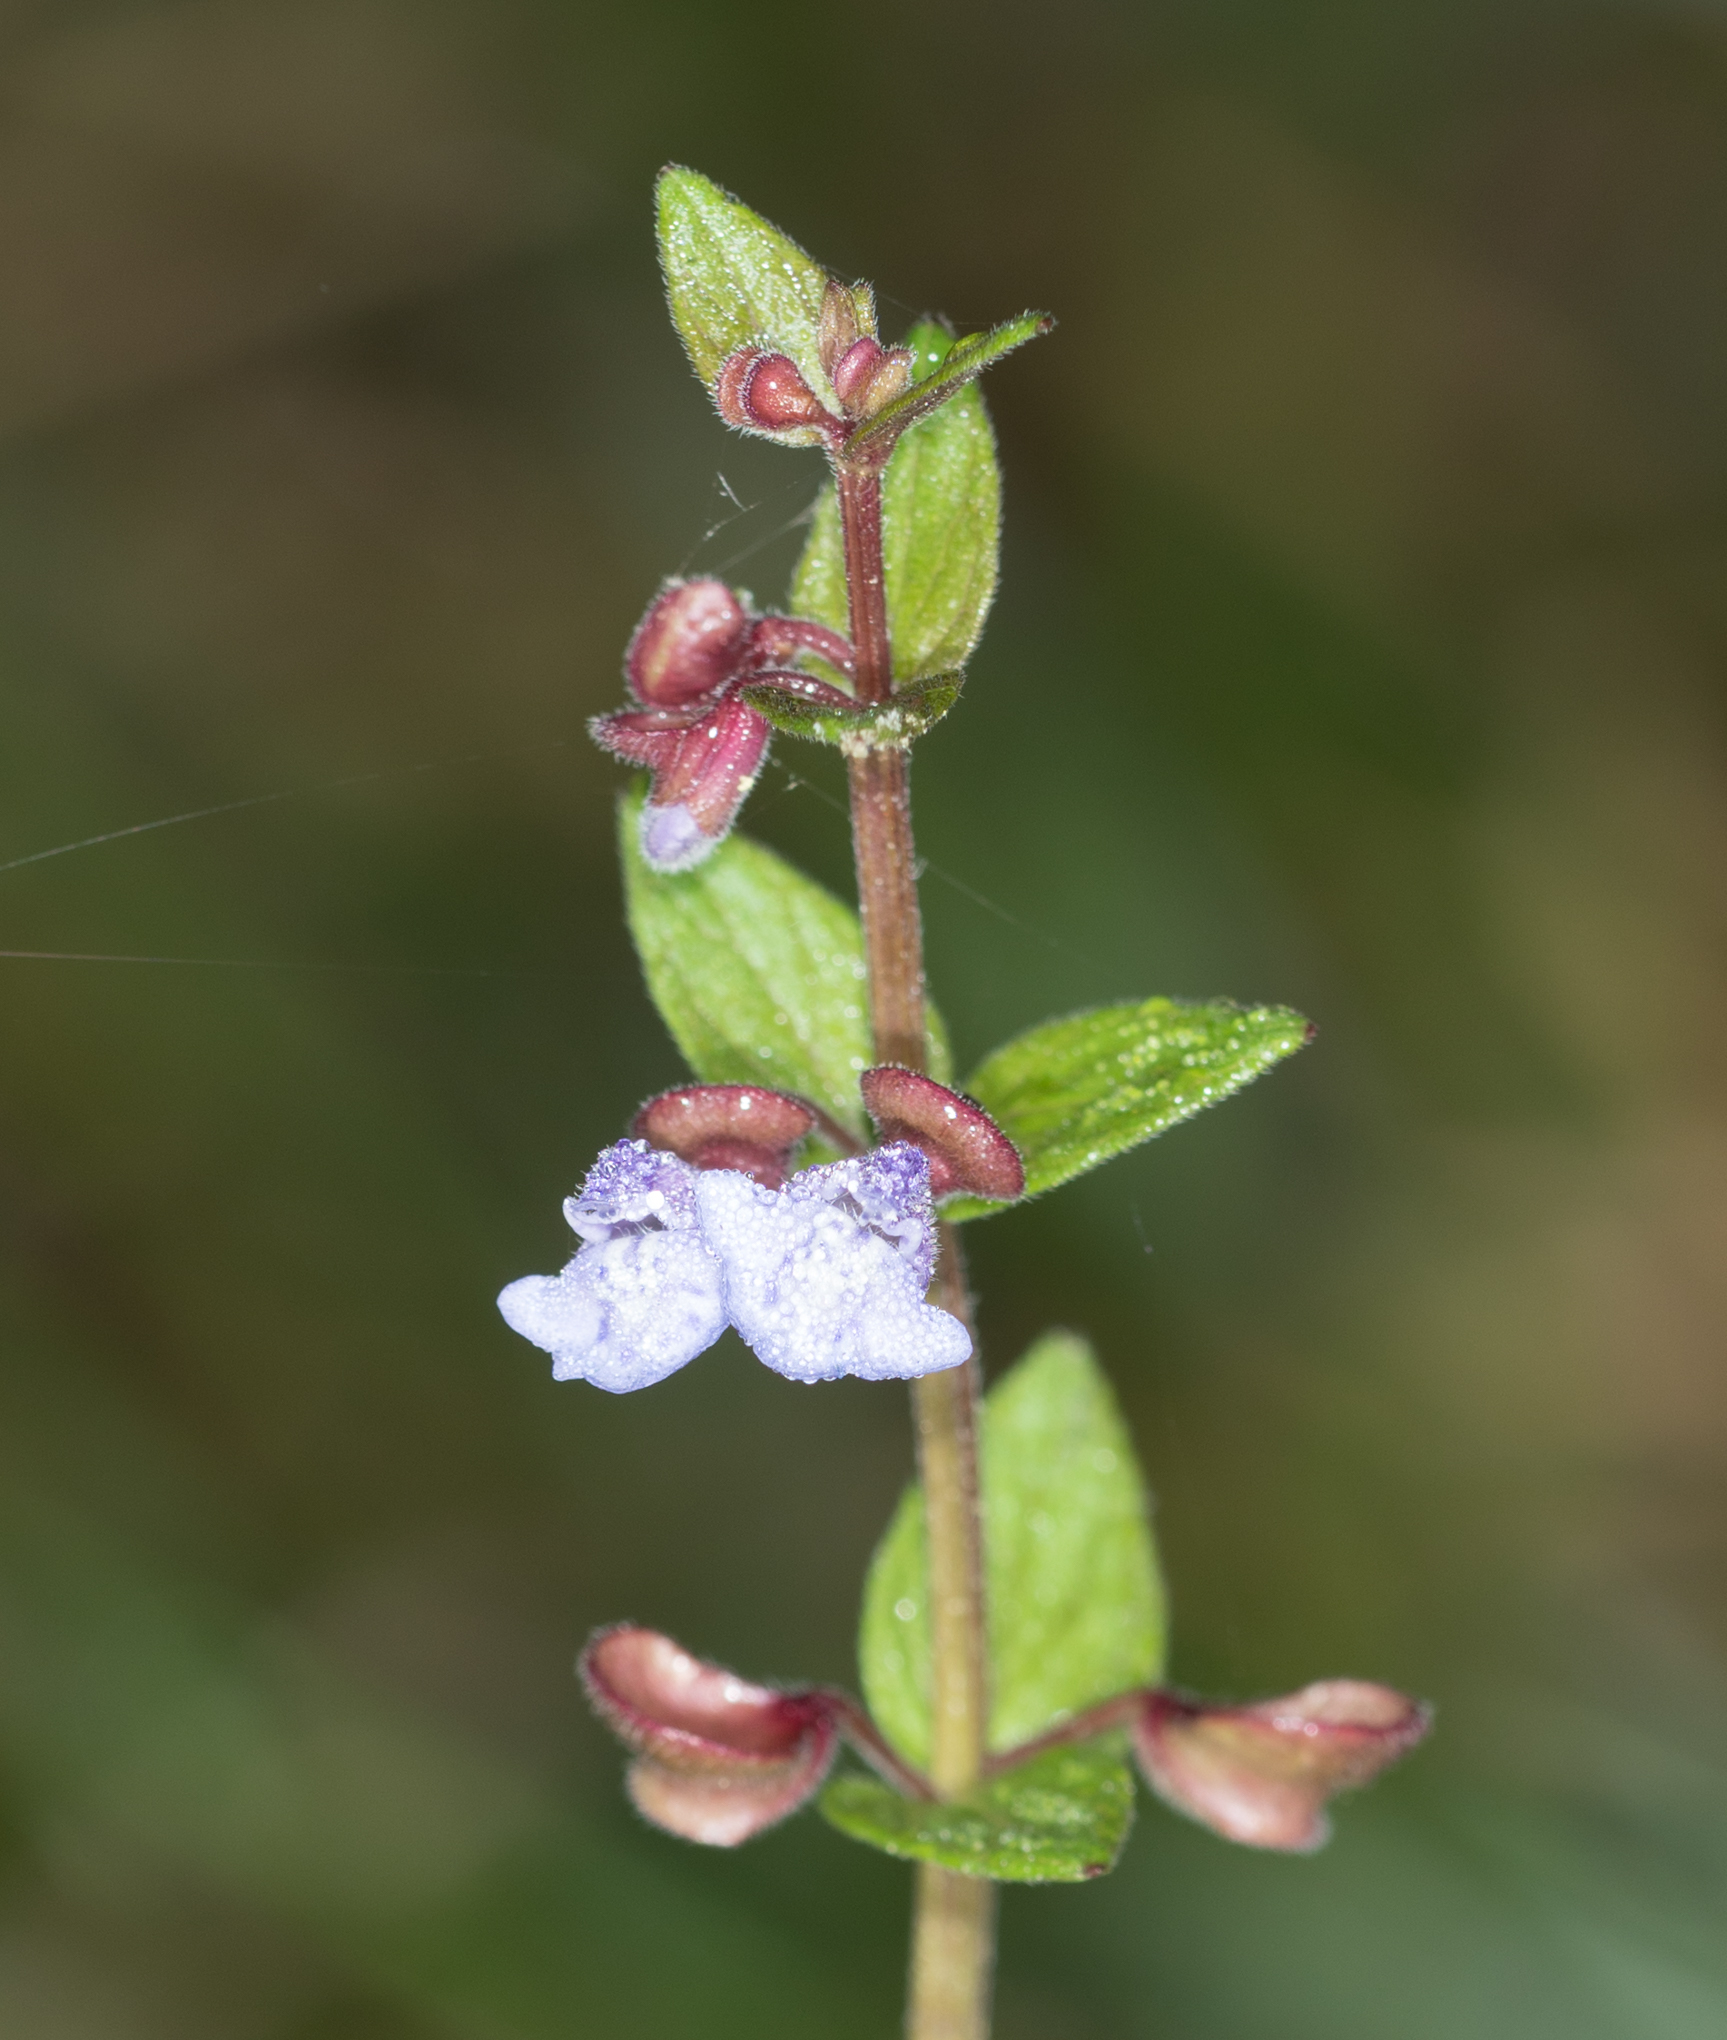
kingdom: Plantae
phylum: Tracheophyta
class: Magnoliopsida
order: Lamiales
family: Lamiaceae
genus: Scutellaria
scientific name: Scutellaria parvula
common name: Little scullcap
